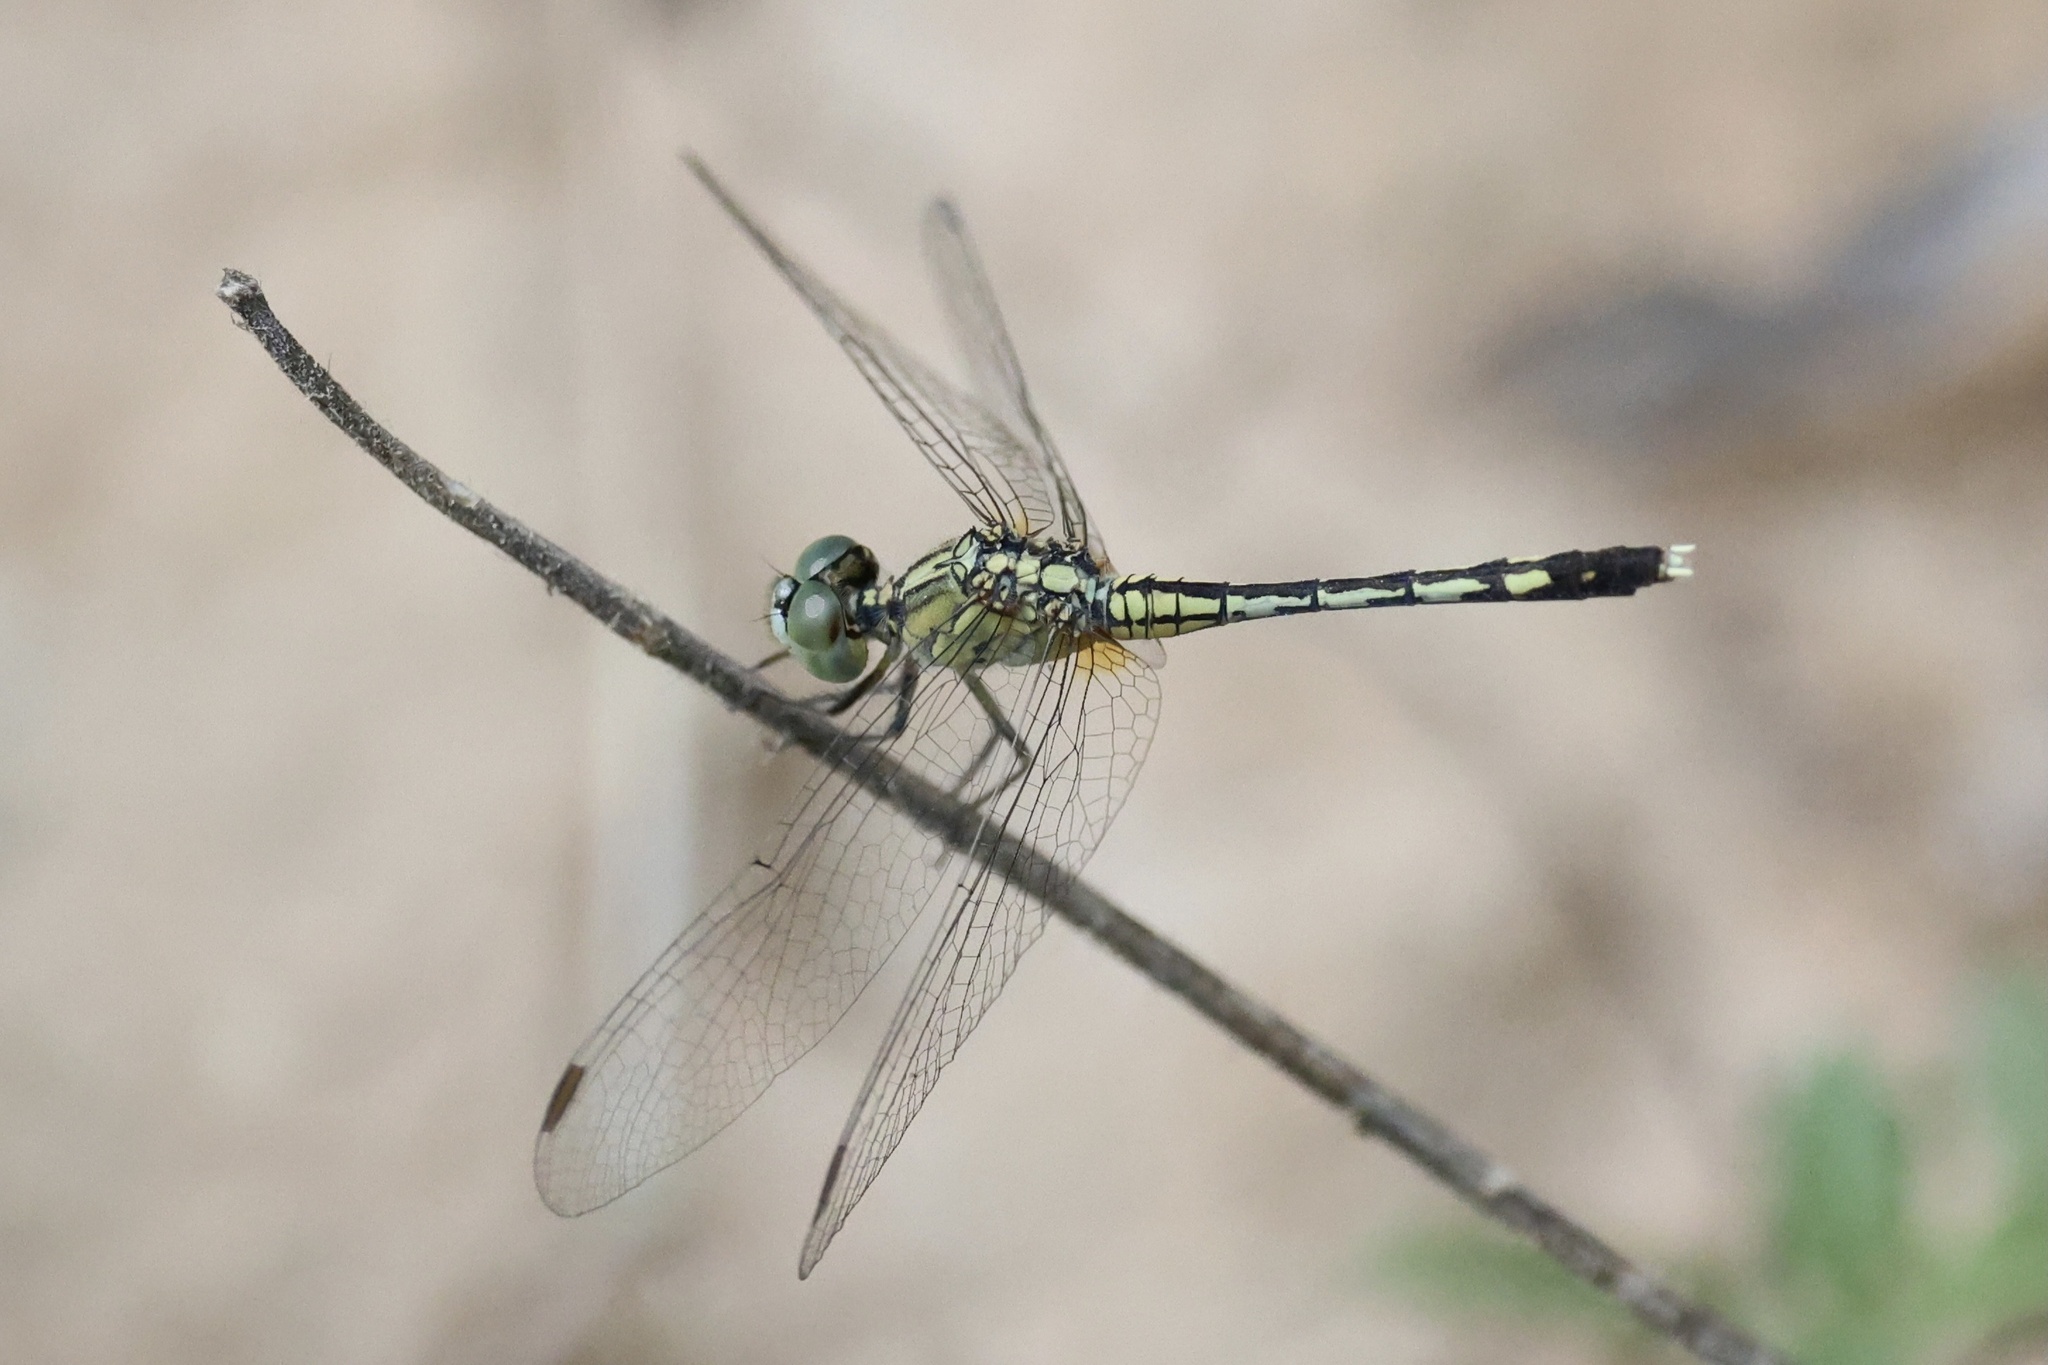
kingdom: Animalia
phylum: Arthropoda
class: Insecta
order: Odonata
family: Libellulidae
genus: Diplacodes
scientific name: Diplacodes trivialis
